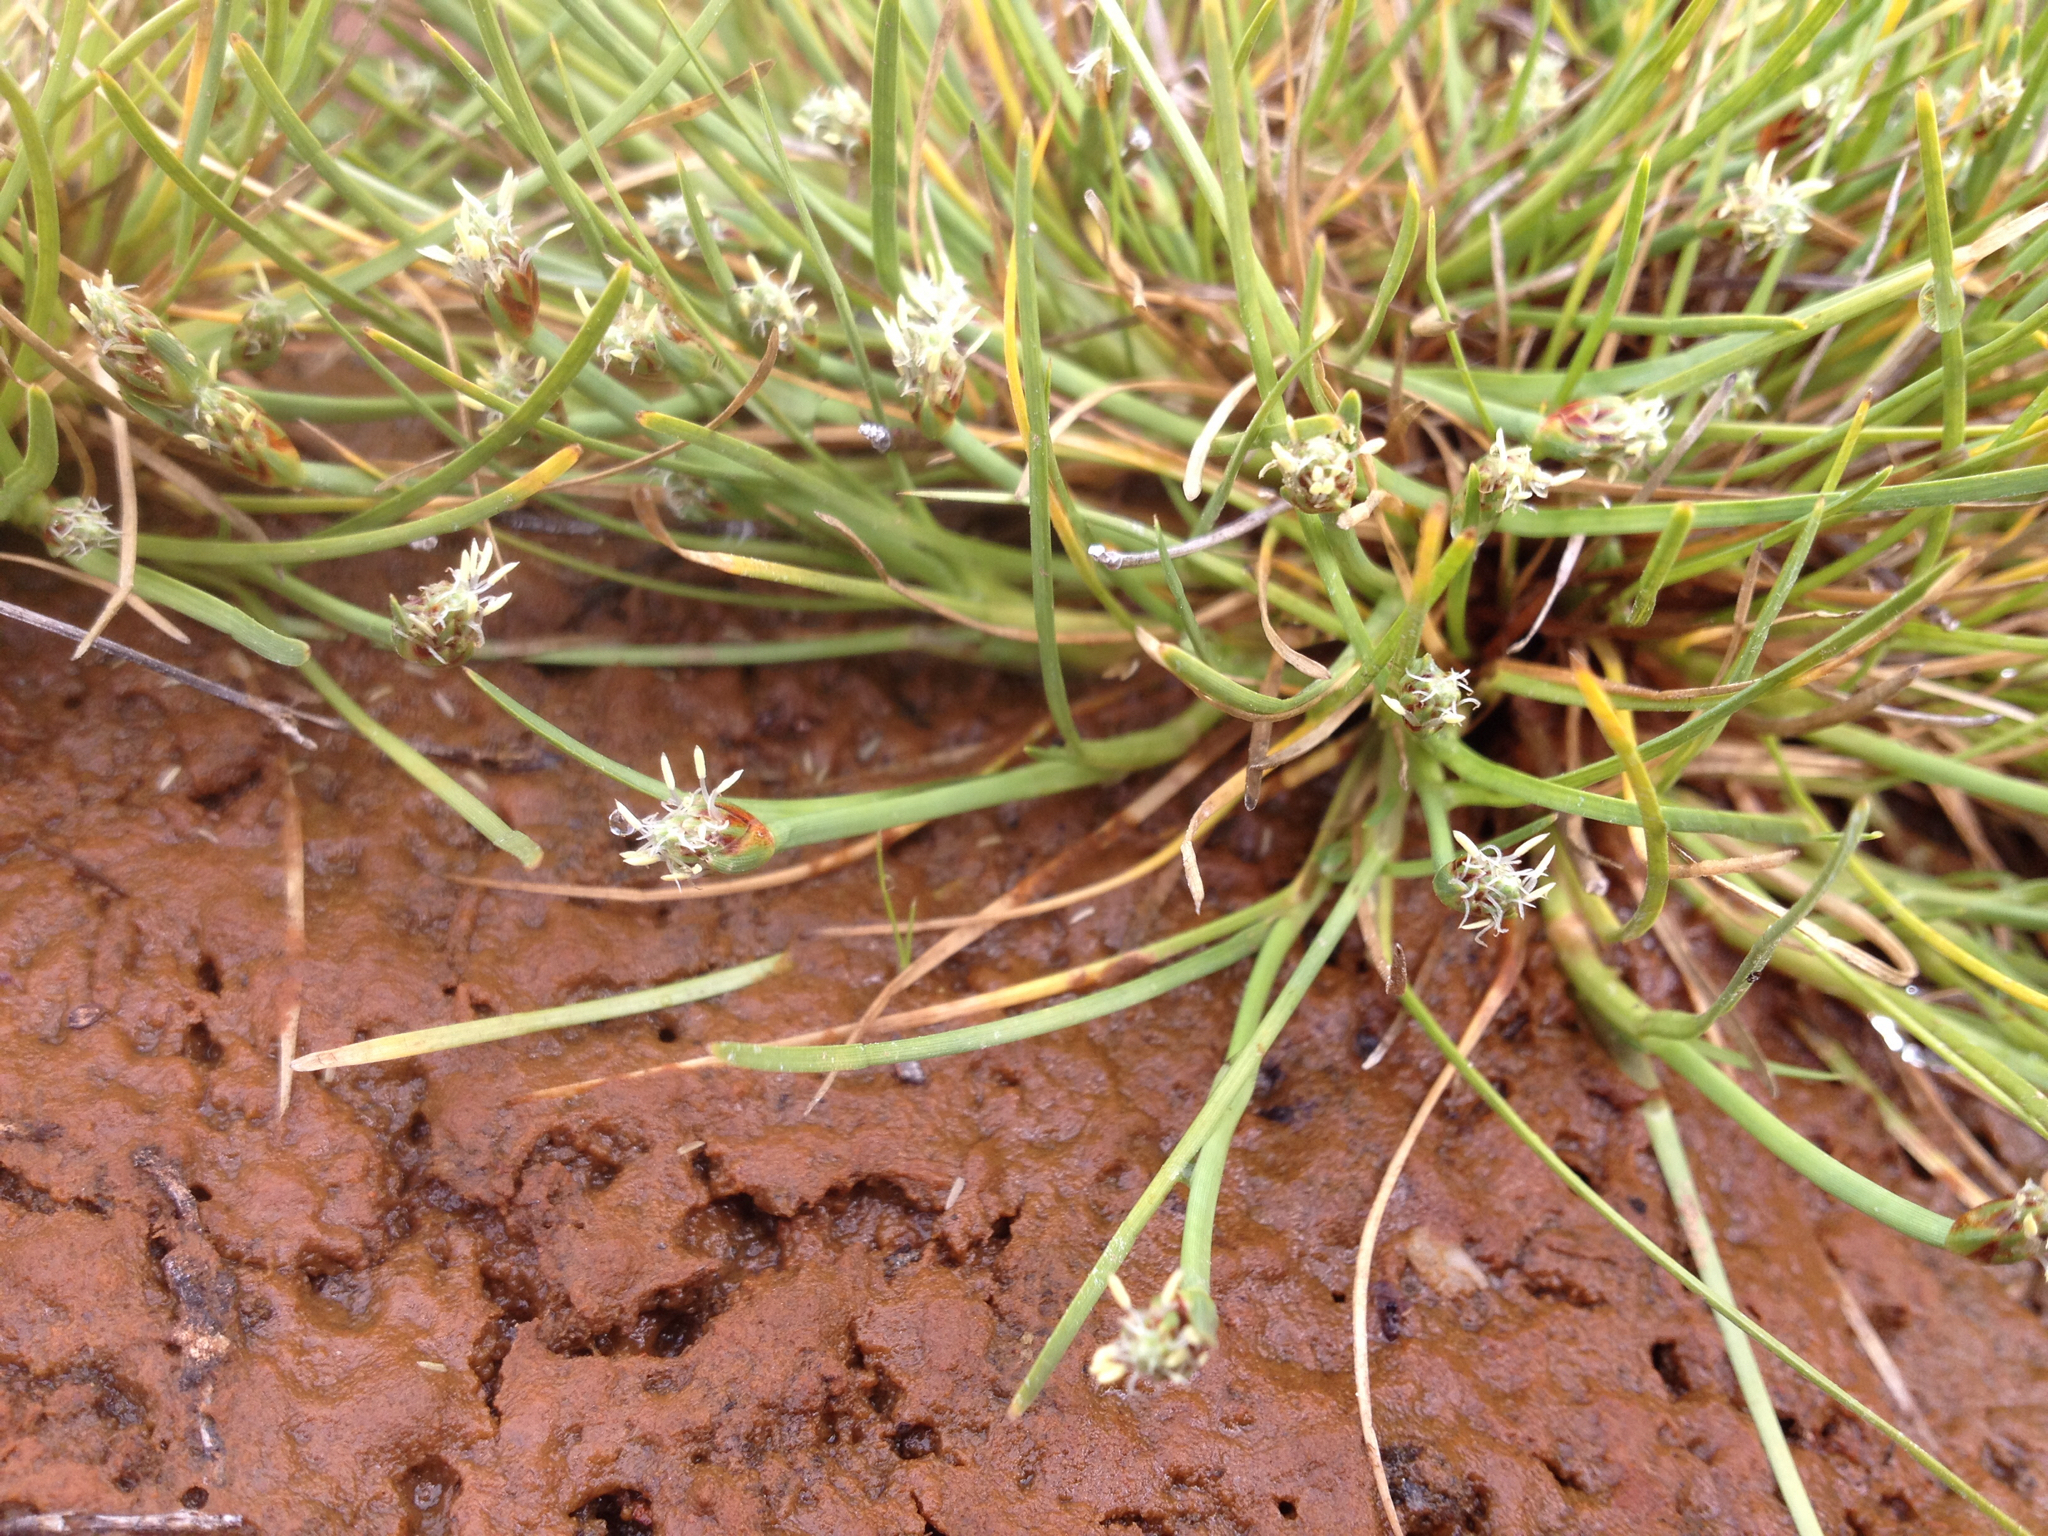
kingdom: Plantae
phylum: Tracheophyta
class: Liliopsida
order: Poales
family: Cyperaceae
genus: Isolepis
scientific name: Isolepis crassiuscula
